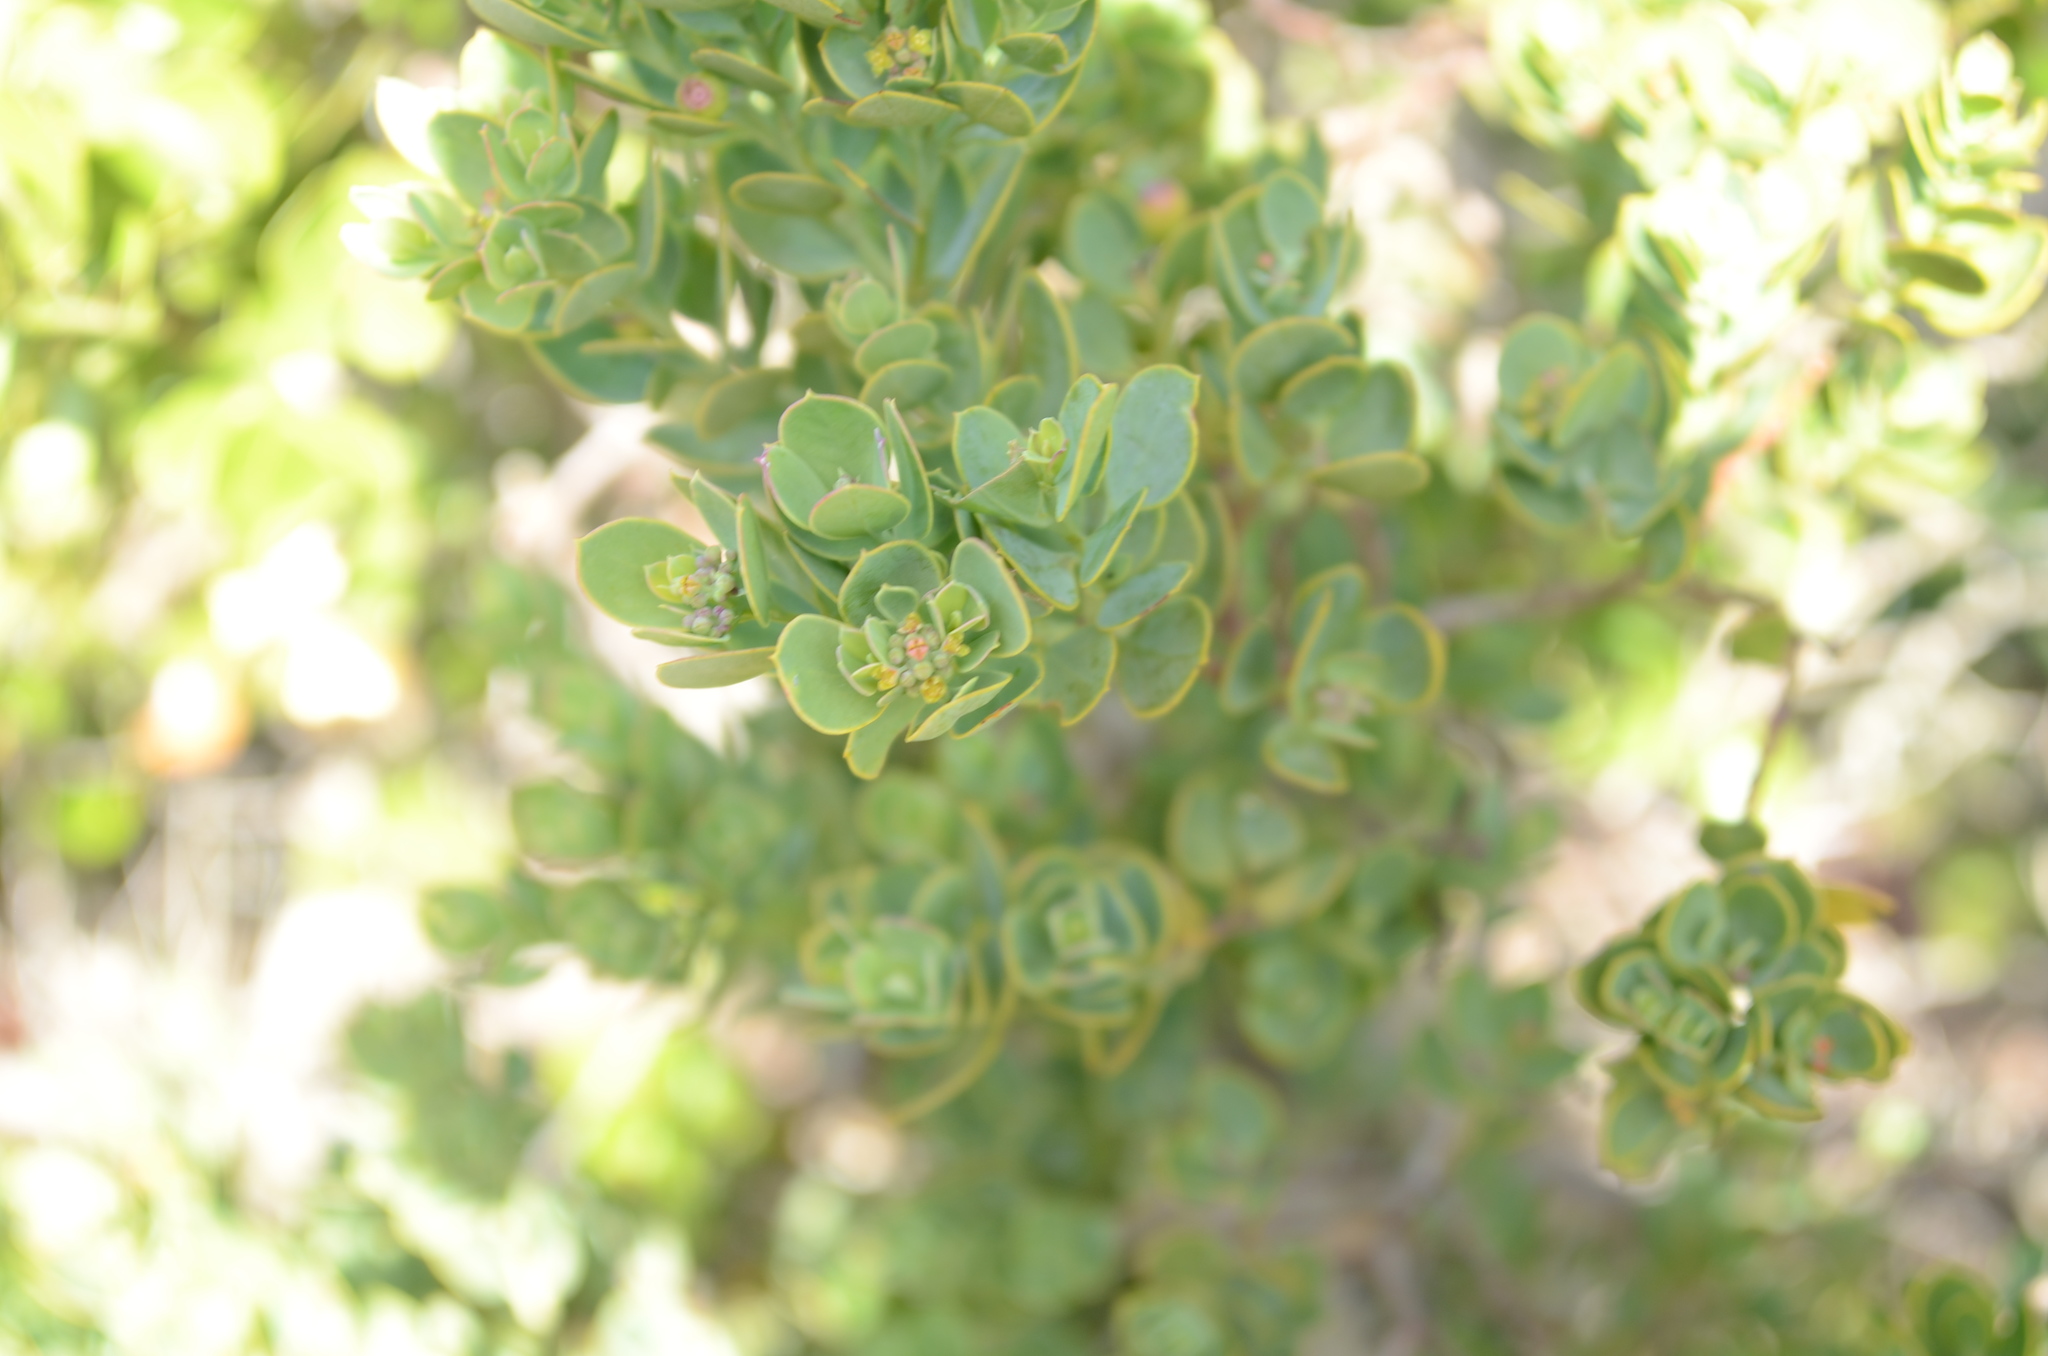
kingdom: Plantae
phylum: Tracheophyta
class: Magnoliopsida
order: Santalales
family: Santalaceae
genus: Osyris
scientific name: Osyris compressa
